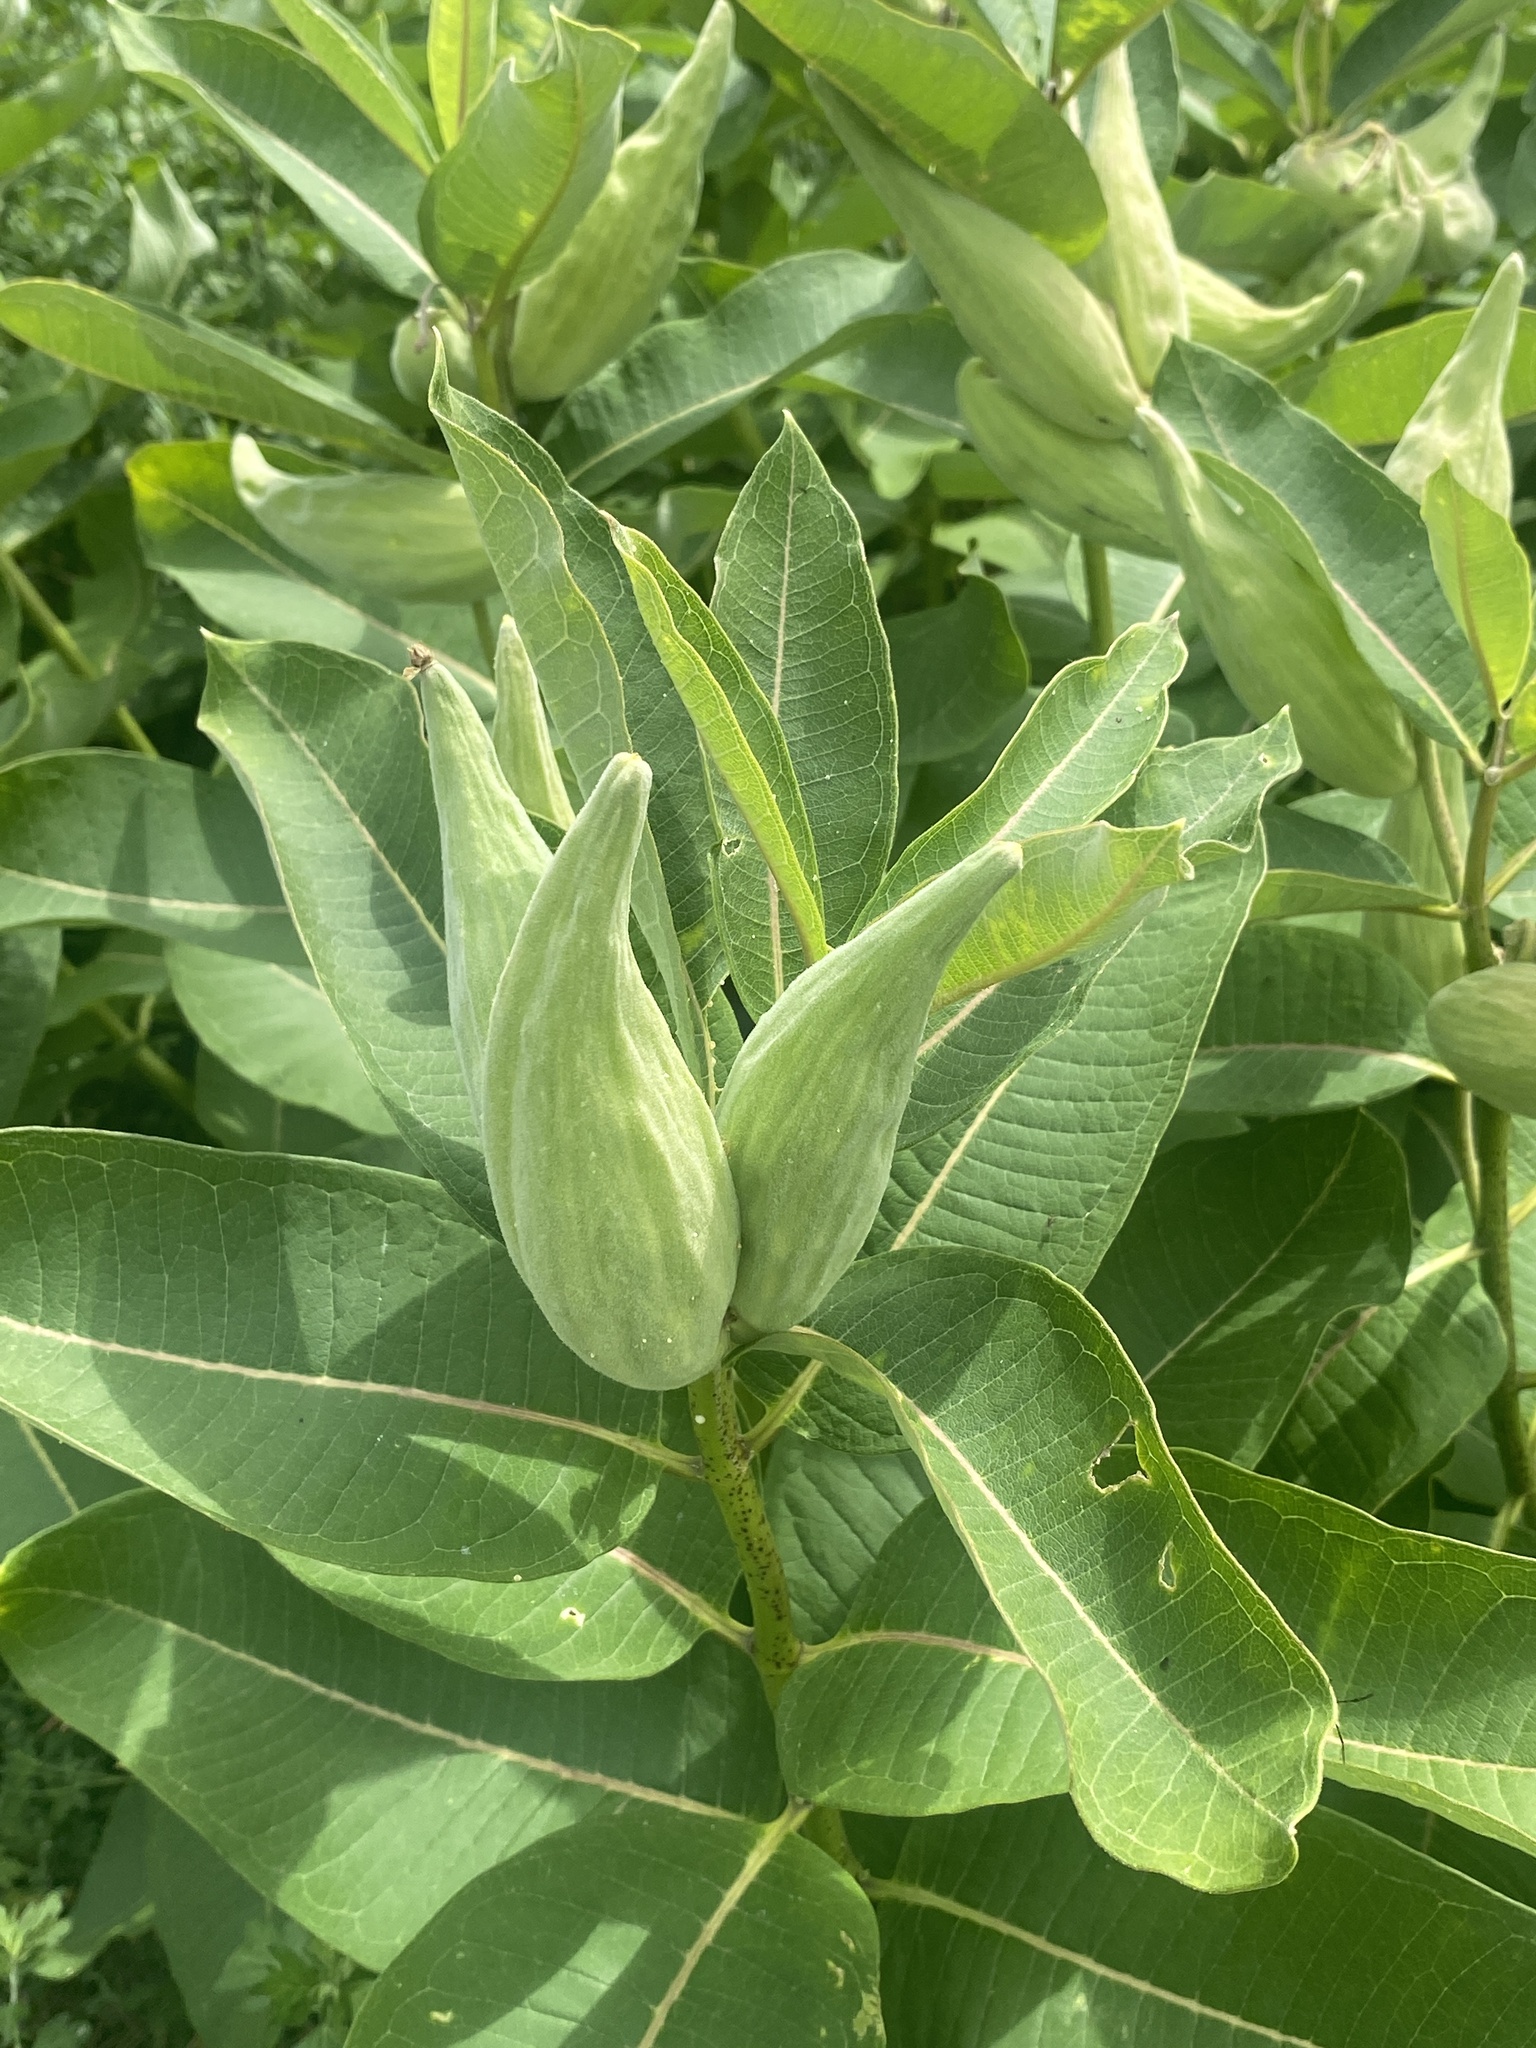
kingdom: Plantae
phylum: Tracheophyta
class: Magnoliopsida
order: Gentianales
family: Apocynaceae
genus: Asclepias
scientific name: Asclepias syriaca
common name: Common milkweed
